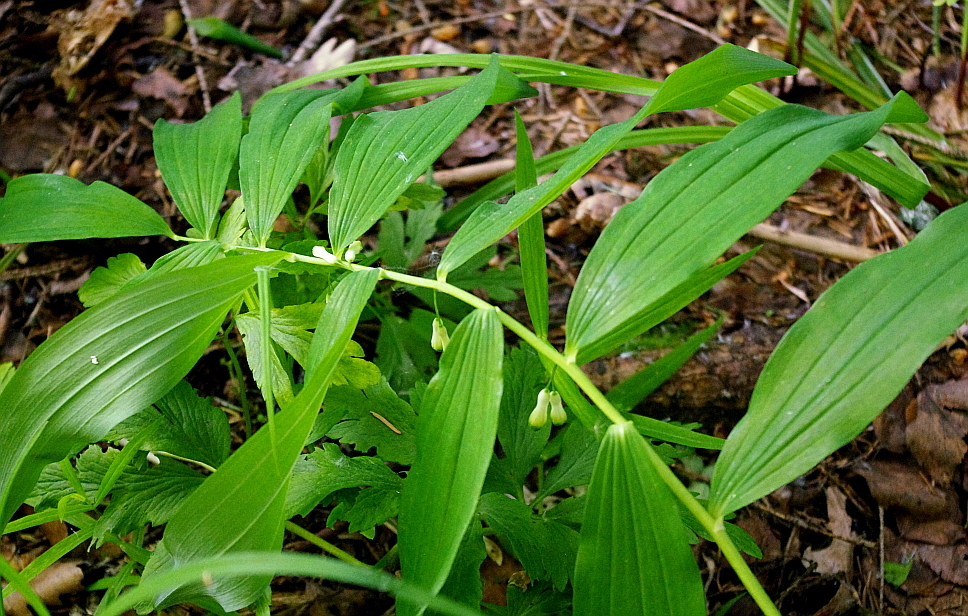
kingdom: Plantae
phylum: Tracheophyta
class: Liliopsida
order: Asparagales
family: Asparagaceae
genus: Polygonatum
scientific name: Polygonatum multiflorum
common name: Solomon's-seal
